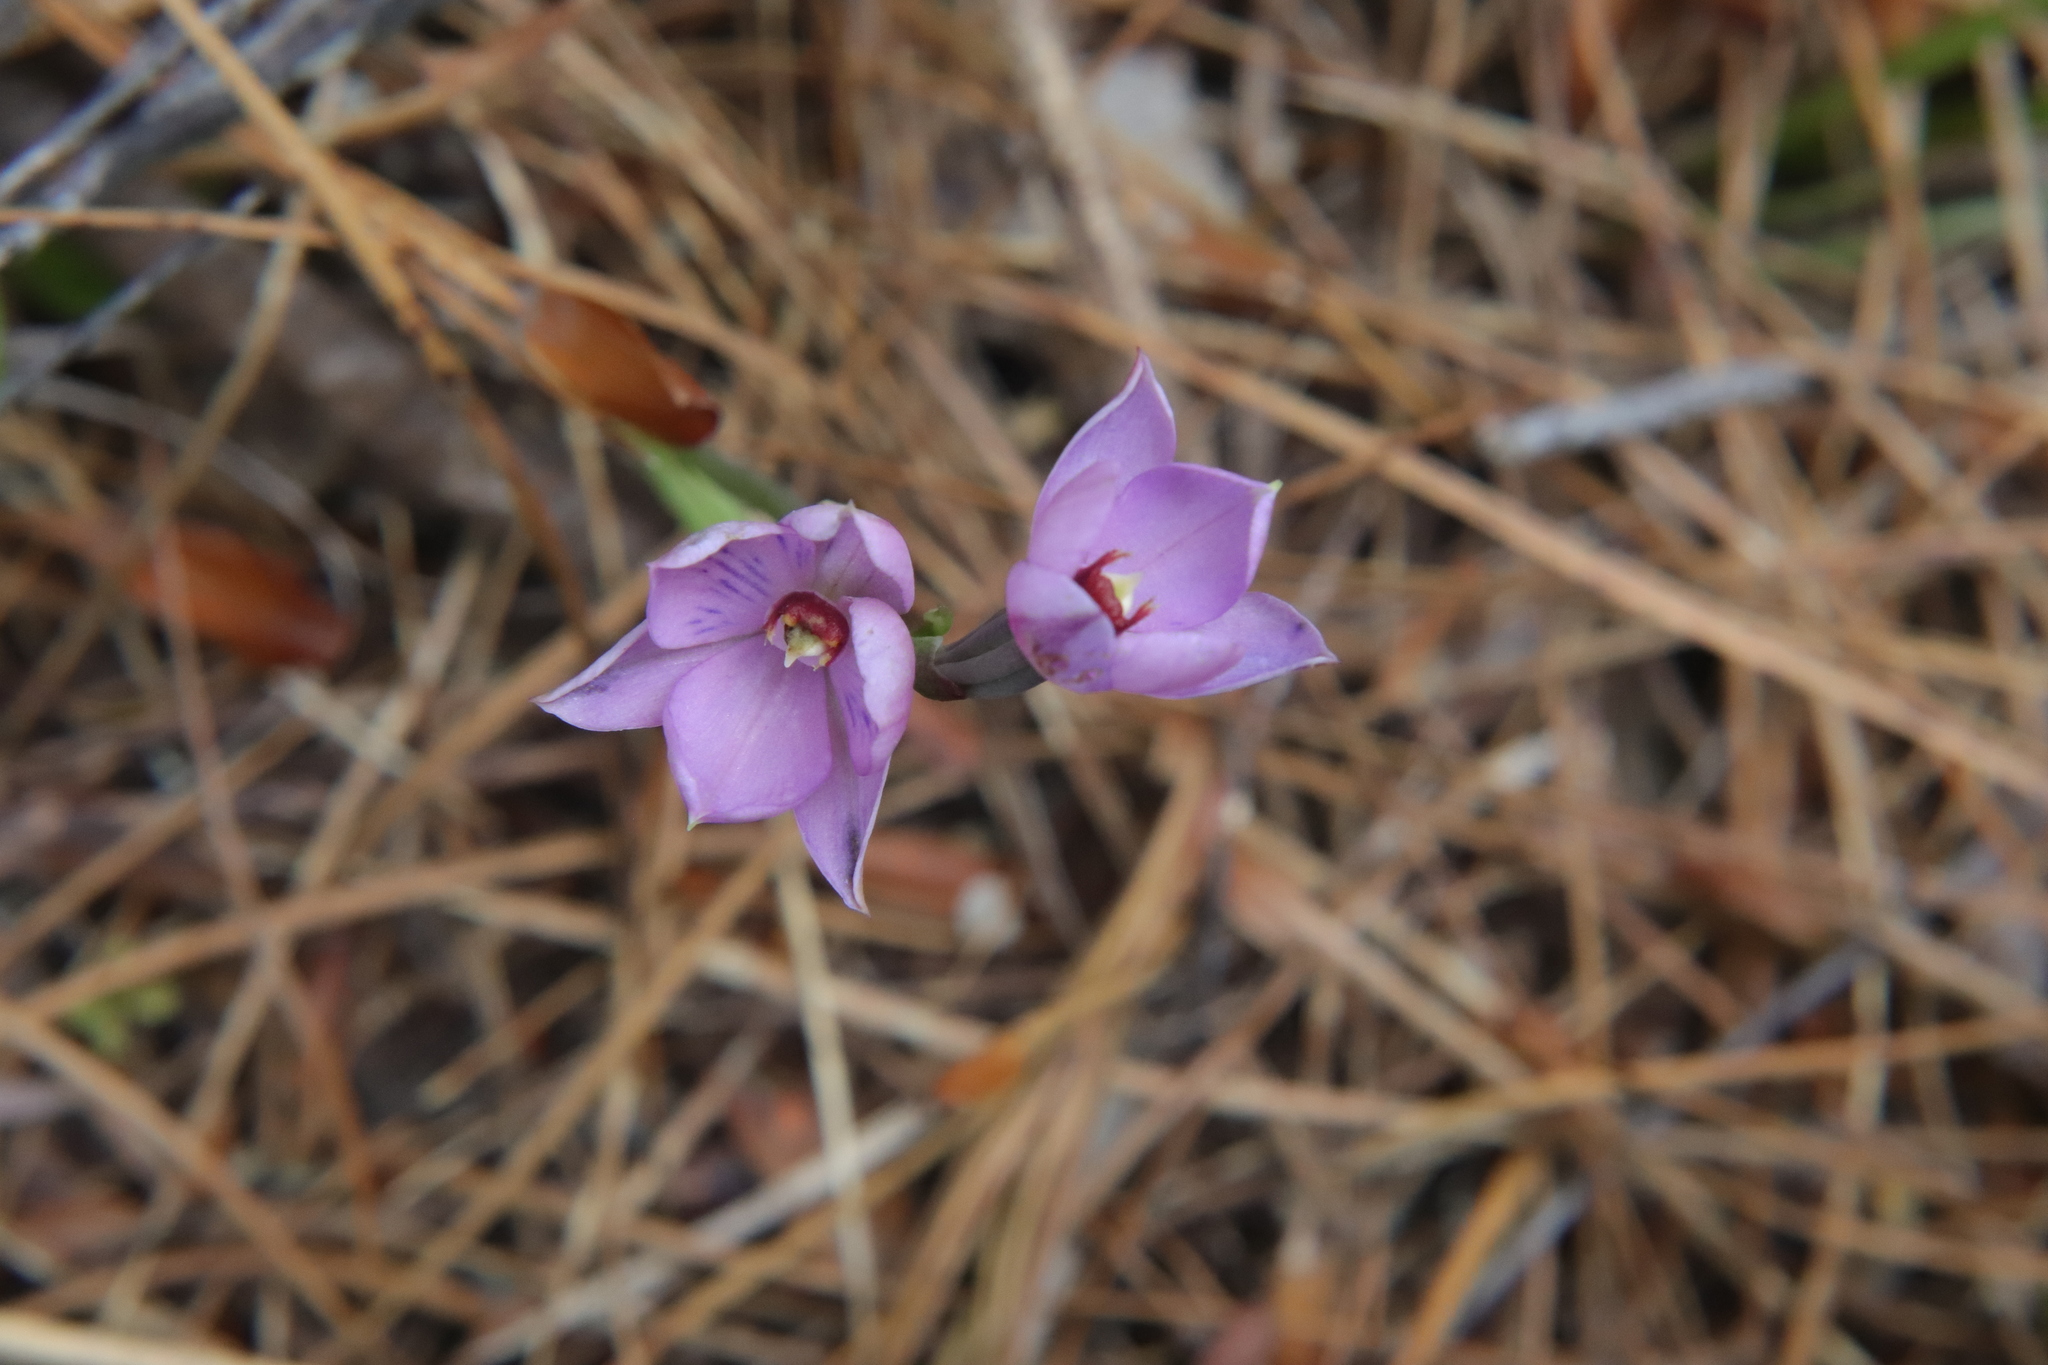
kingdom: Plantae
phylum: Tracheophyta
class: Liliopsida
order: Asparagales
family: Orchidaceae
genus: Thelymitra
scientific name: Thelymitra pulchella
